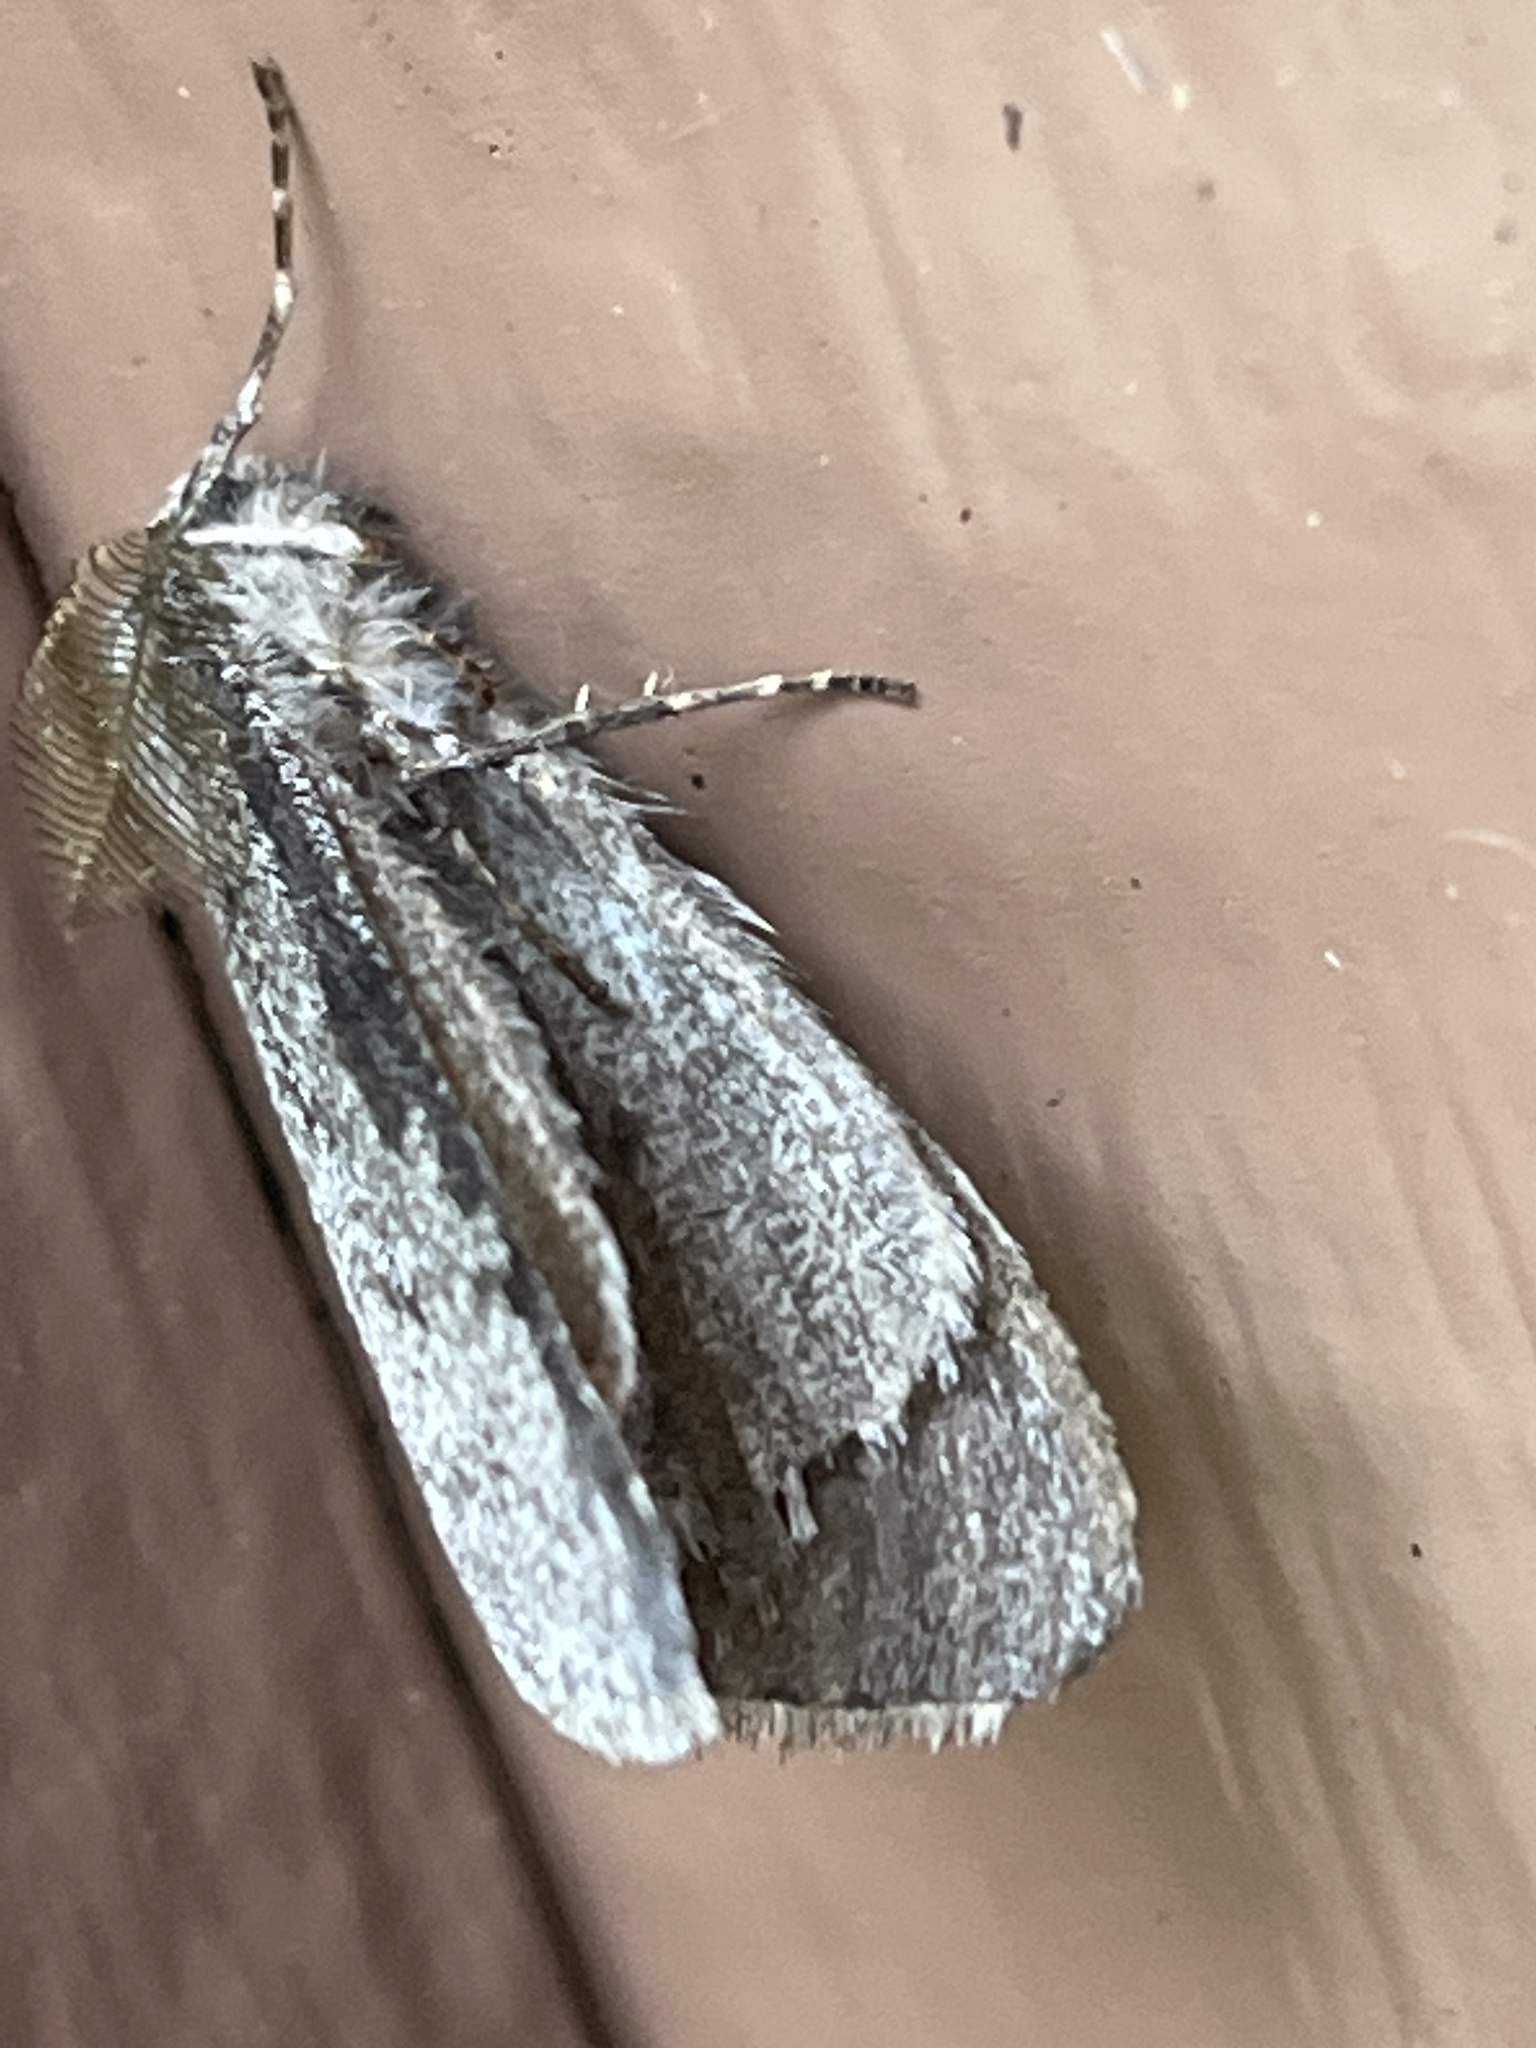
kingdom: Animalia
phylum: Arthropoda
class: Insecta
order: Lepidoptera
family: Geometridae
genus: Phigalia
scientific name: Phigalia plumogeraria
